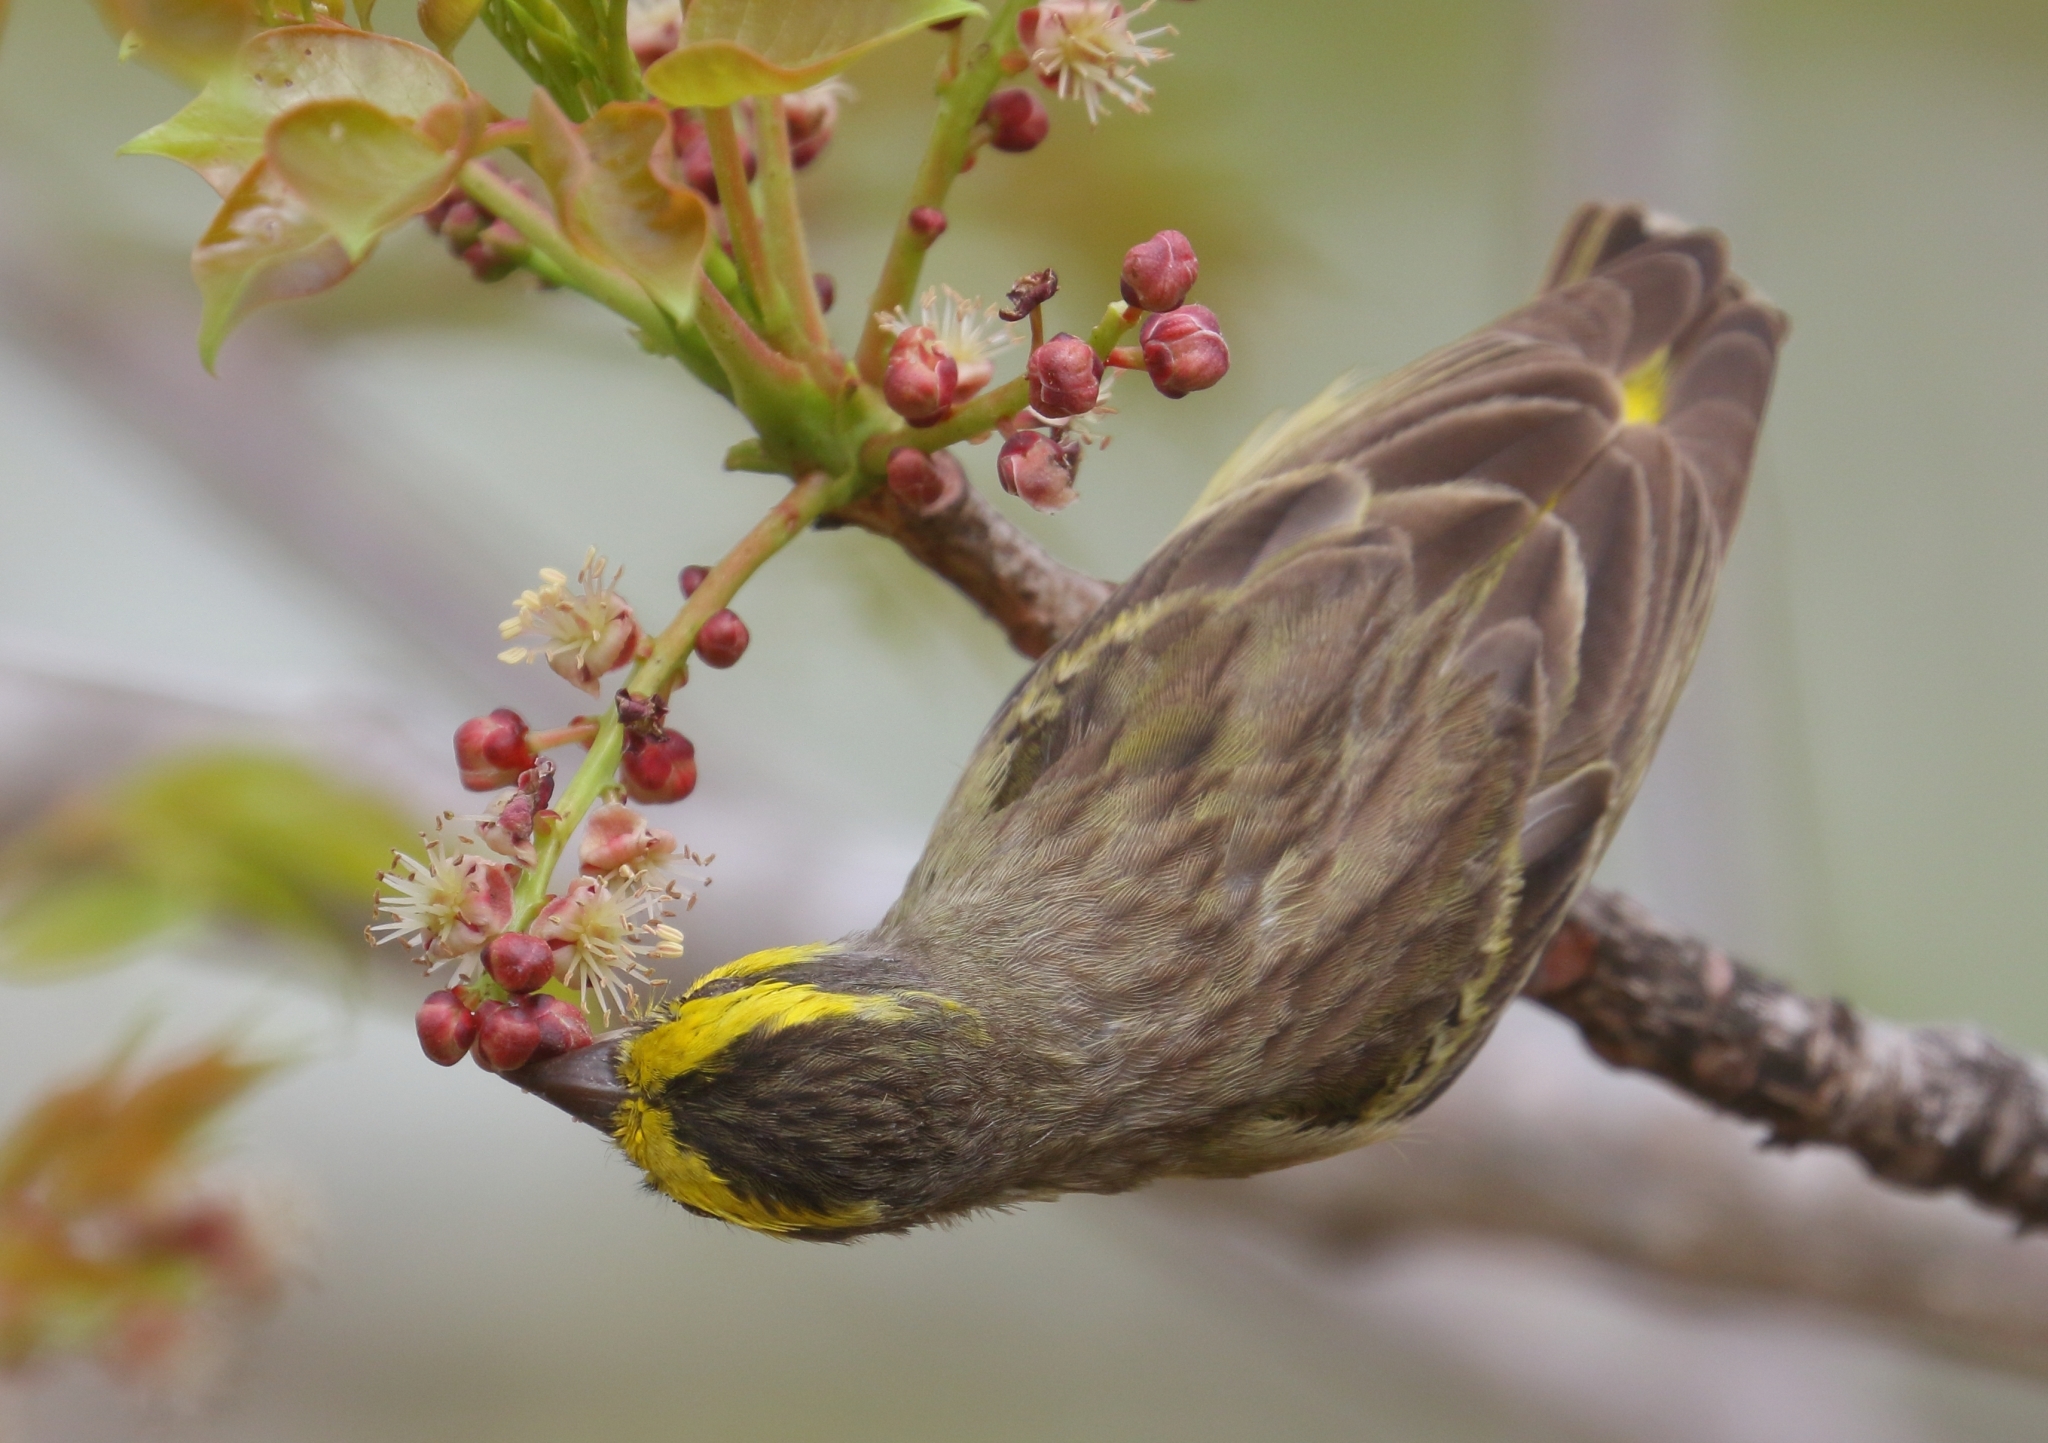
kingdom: Animalia
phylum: Chordata
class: Aves
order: Passeriformes
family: Fringillidae
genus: Crithagra
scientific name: Crithagra mozambica
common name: Yellow-fronted canary
